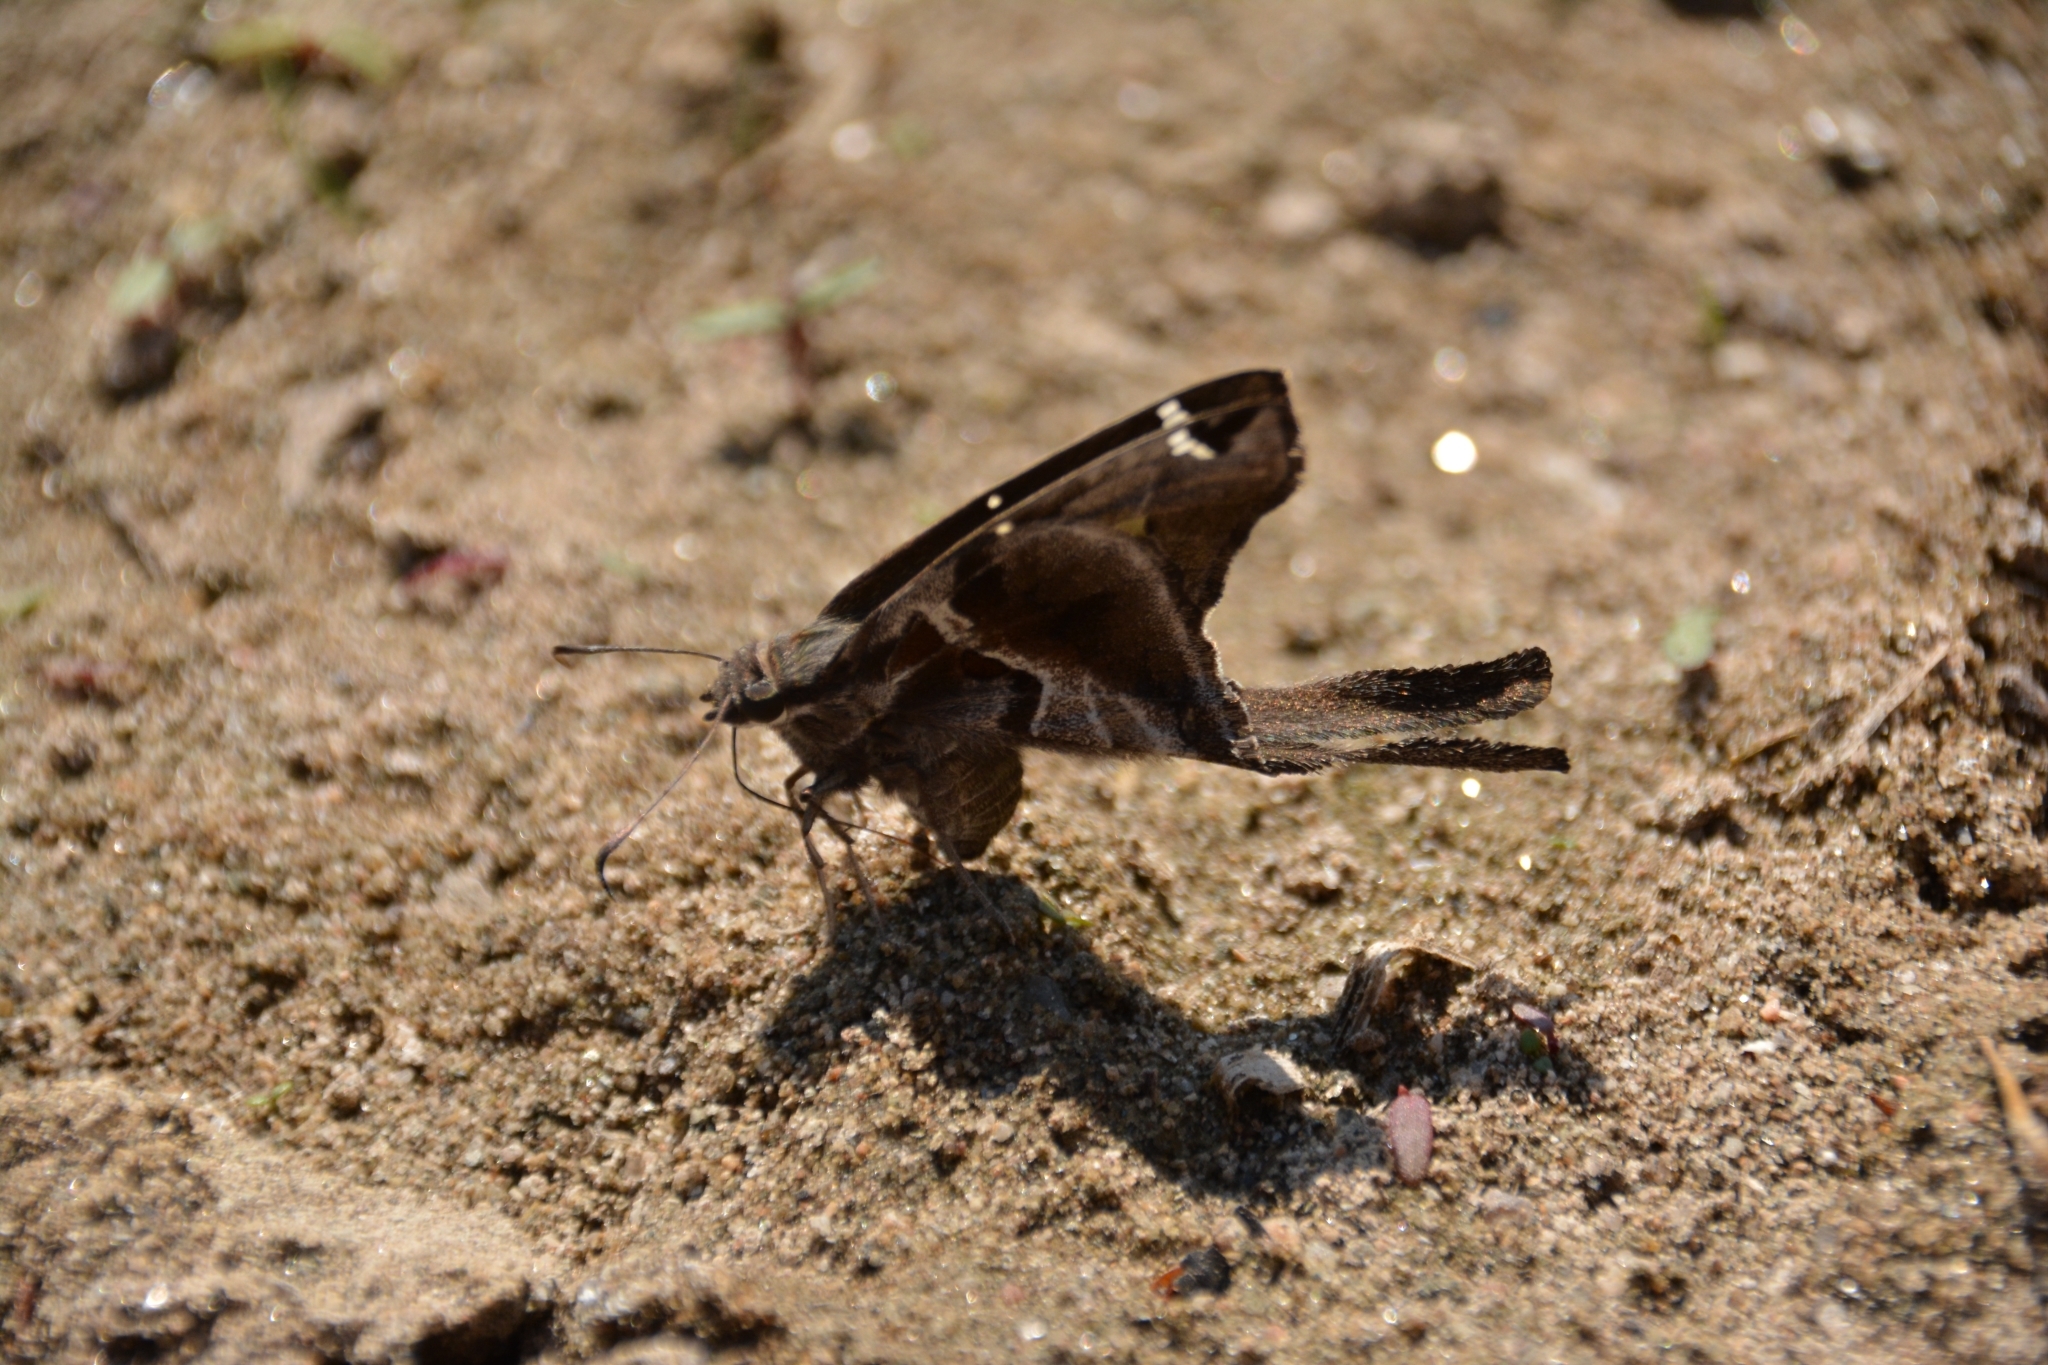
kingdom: Animalia
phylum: Arthropoda
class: Insecta
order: Lepidoptera
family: Hesperiidae
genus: Chioides
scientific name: Chioides catillus
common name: Silverbanded skipper
